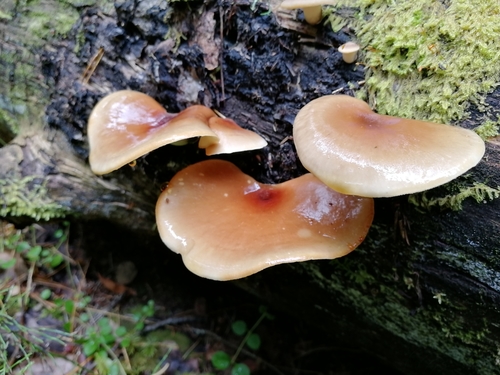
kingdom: Fungi
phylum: Basidiomycota
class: Agaricomycetes
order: Polyporales
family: Polyporaceae
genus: Picipes
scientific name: Picipes badius
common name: Bay polypore
